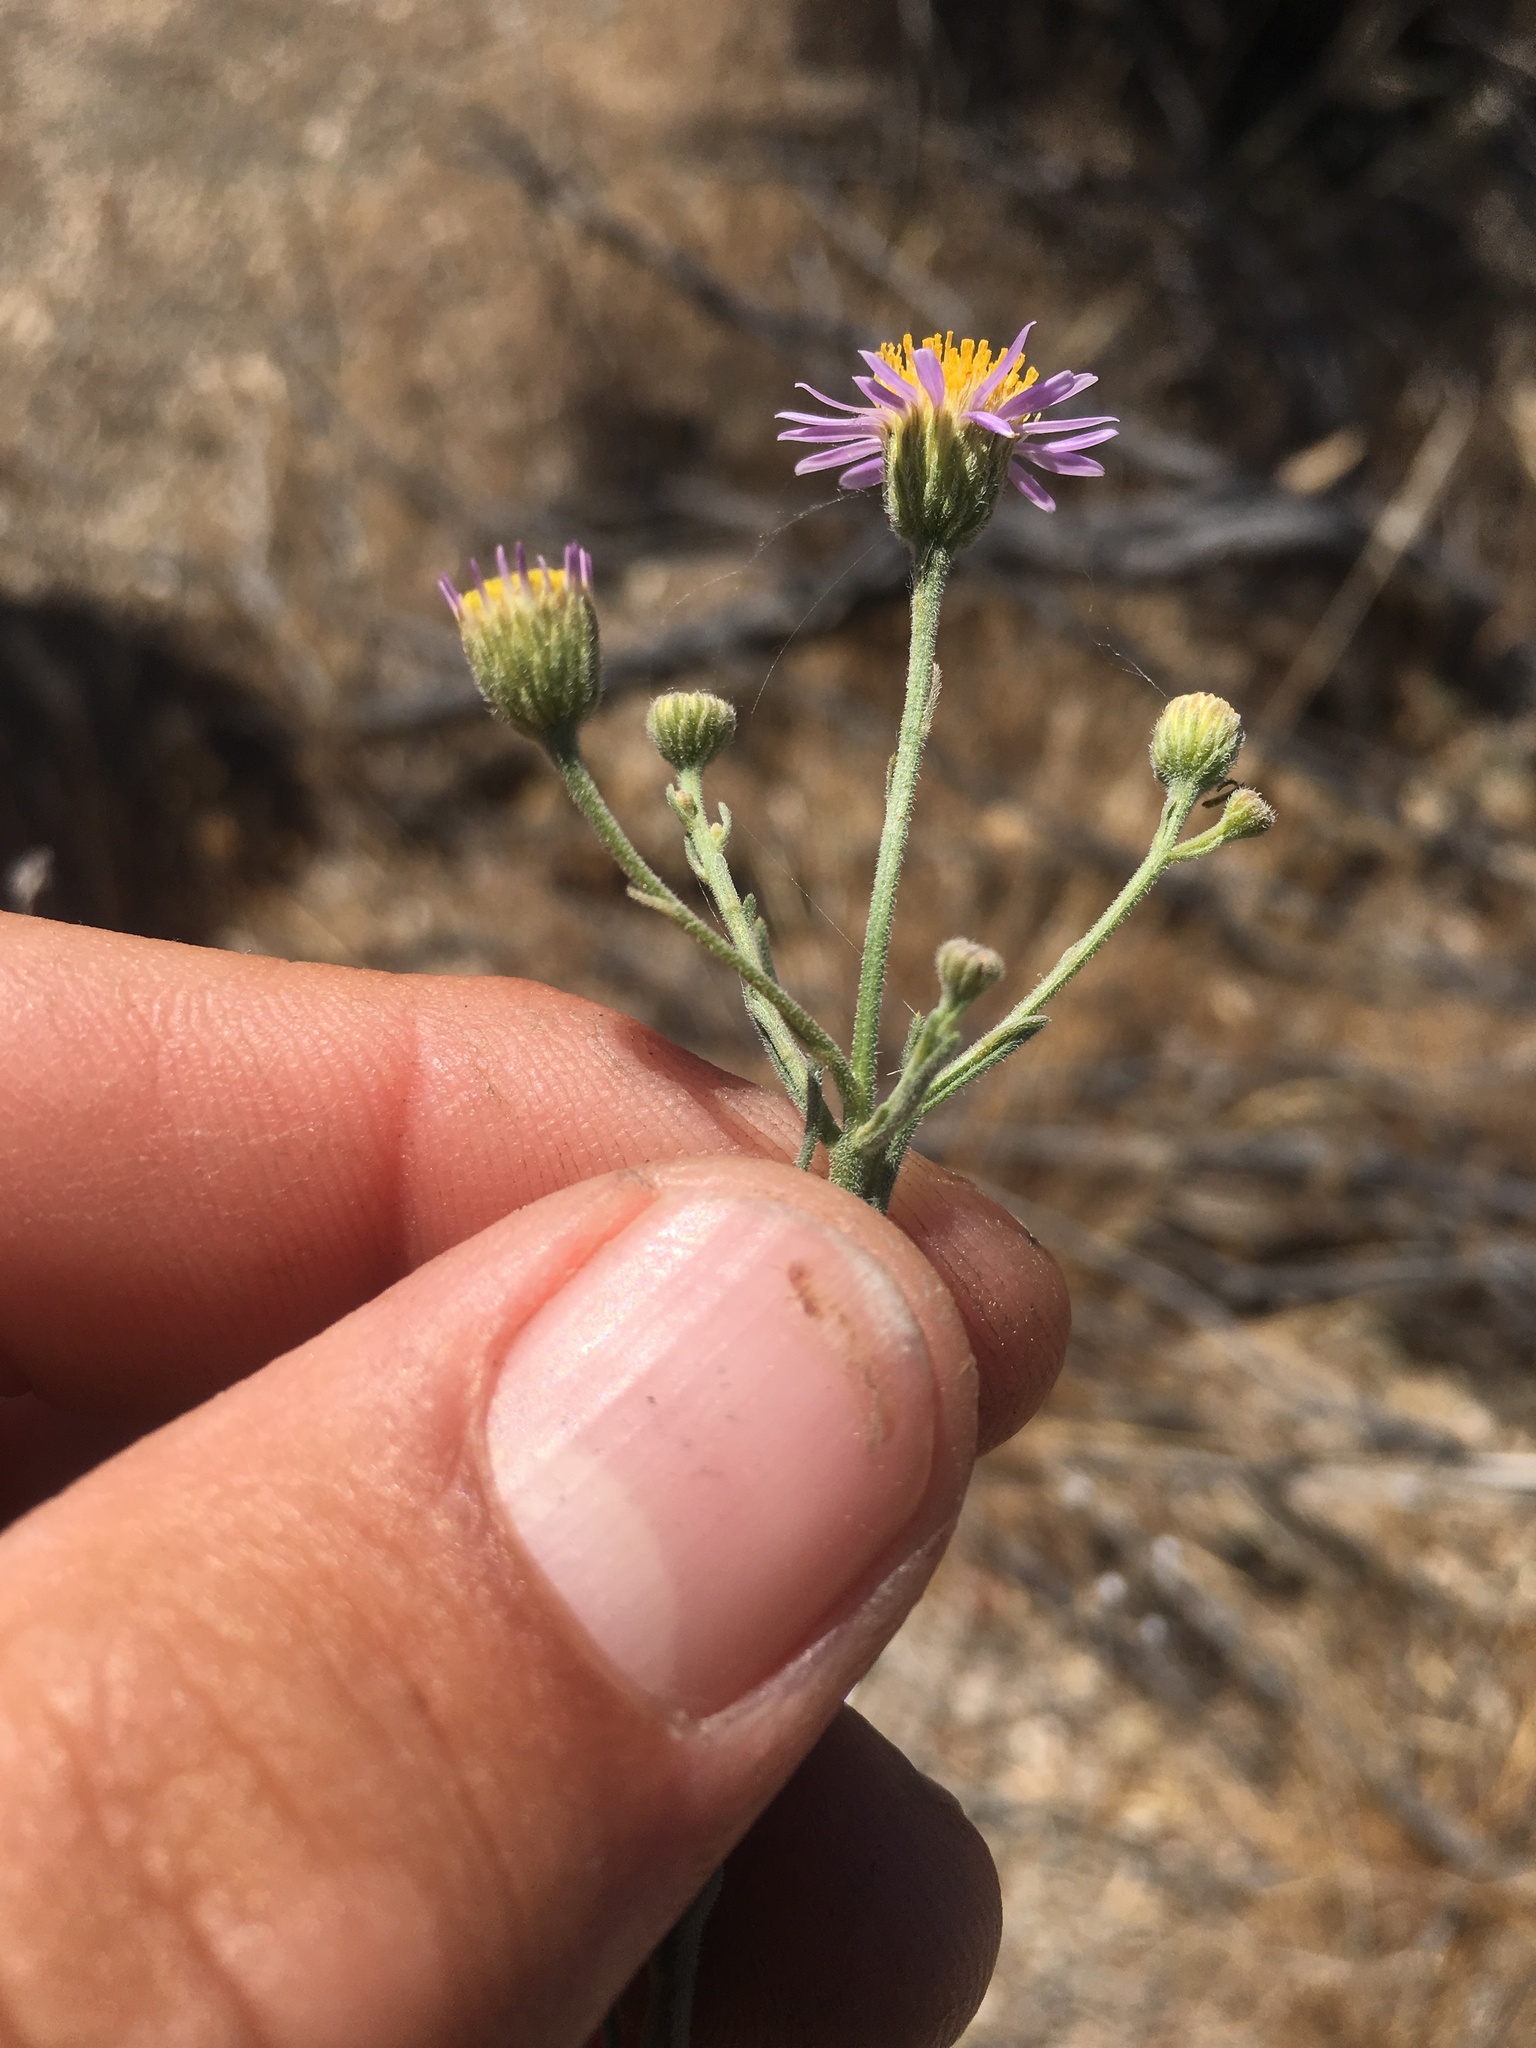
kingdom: Plantae
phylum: Tracheophyta
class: Magnoliopsida
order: Asterales
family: Asteraceae
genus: Erigeron
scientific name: Erigeron foliosus
